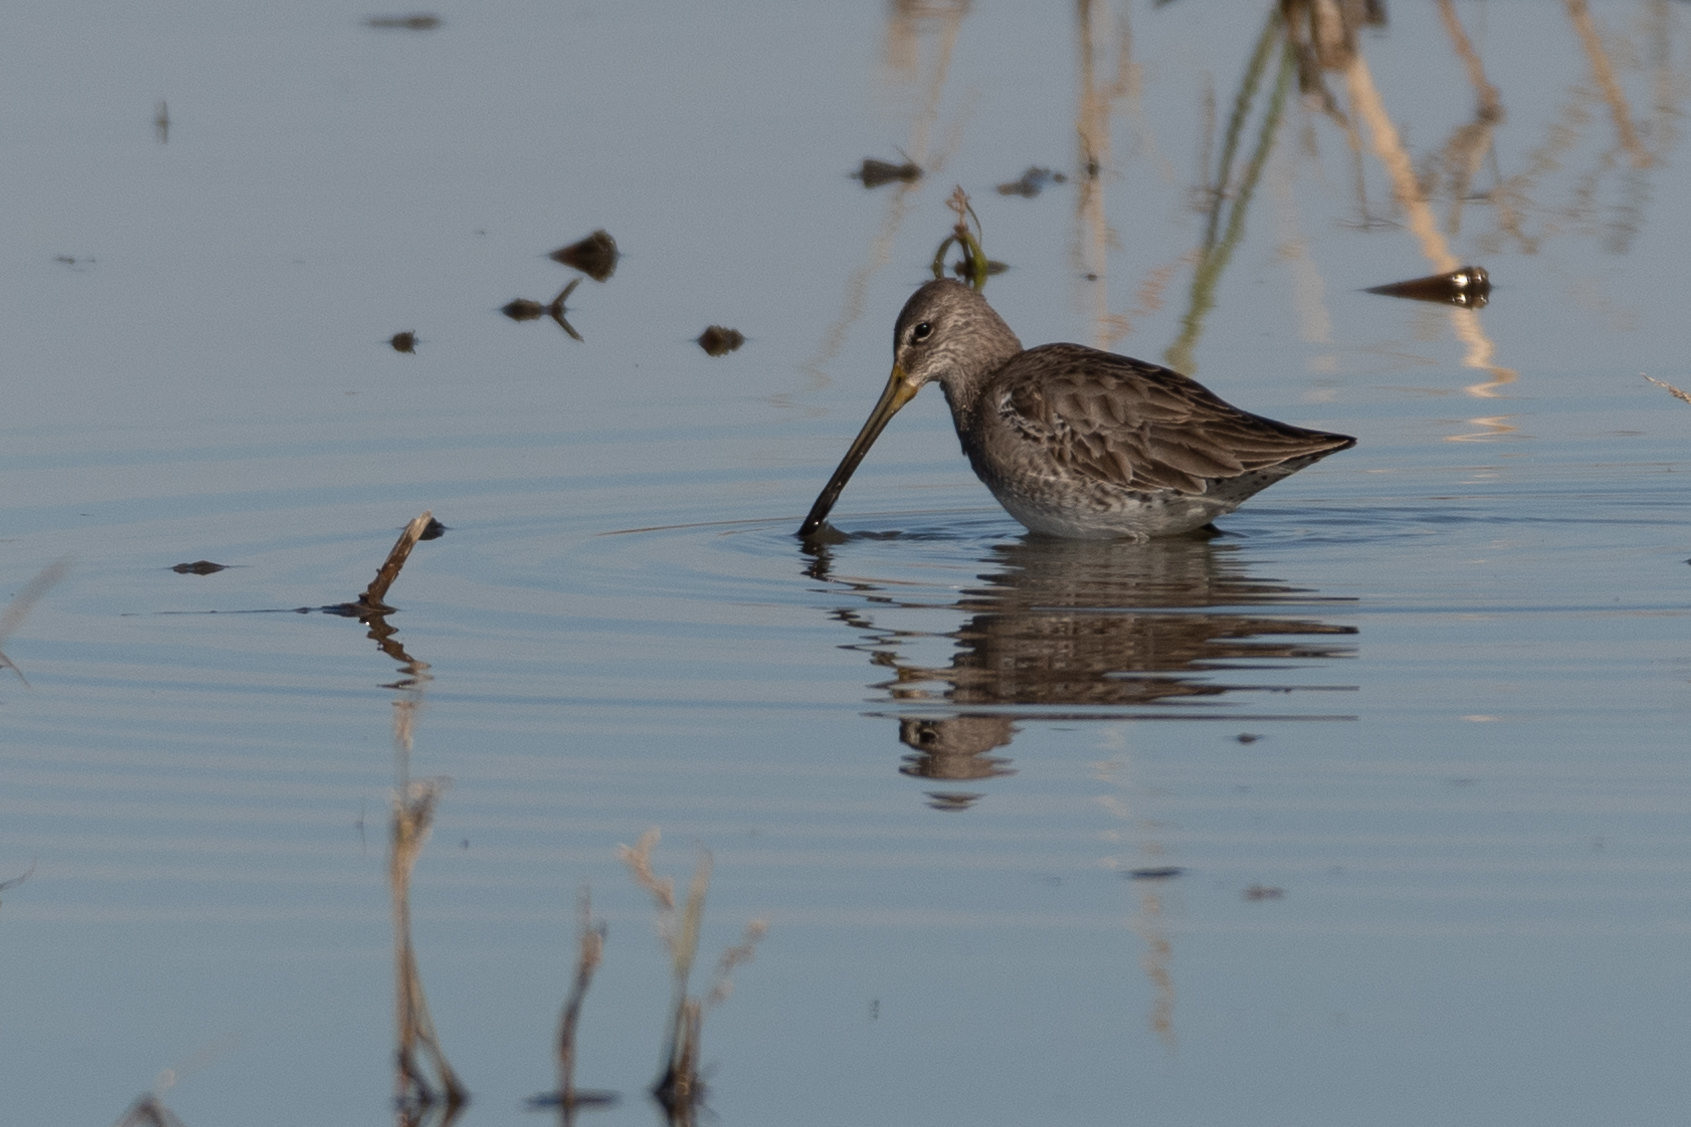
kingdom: Animalia
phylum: Chordata
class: Aves
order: Charadriiformes
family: Scolopacidae
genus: Limnodromus
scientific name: Limnodromus scolopaceus
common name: Long-billed dowitcher
